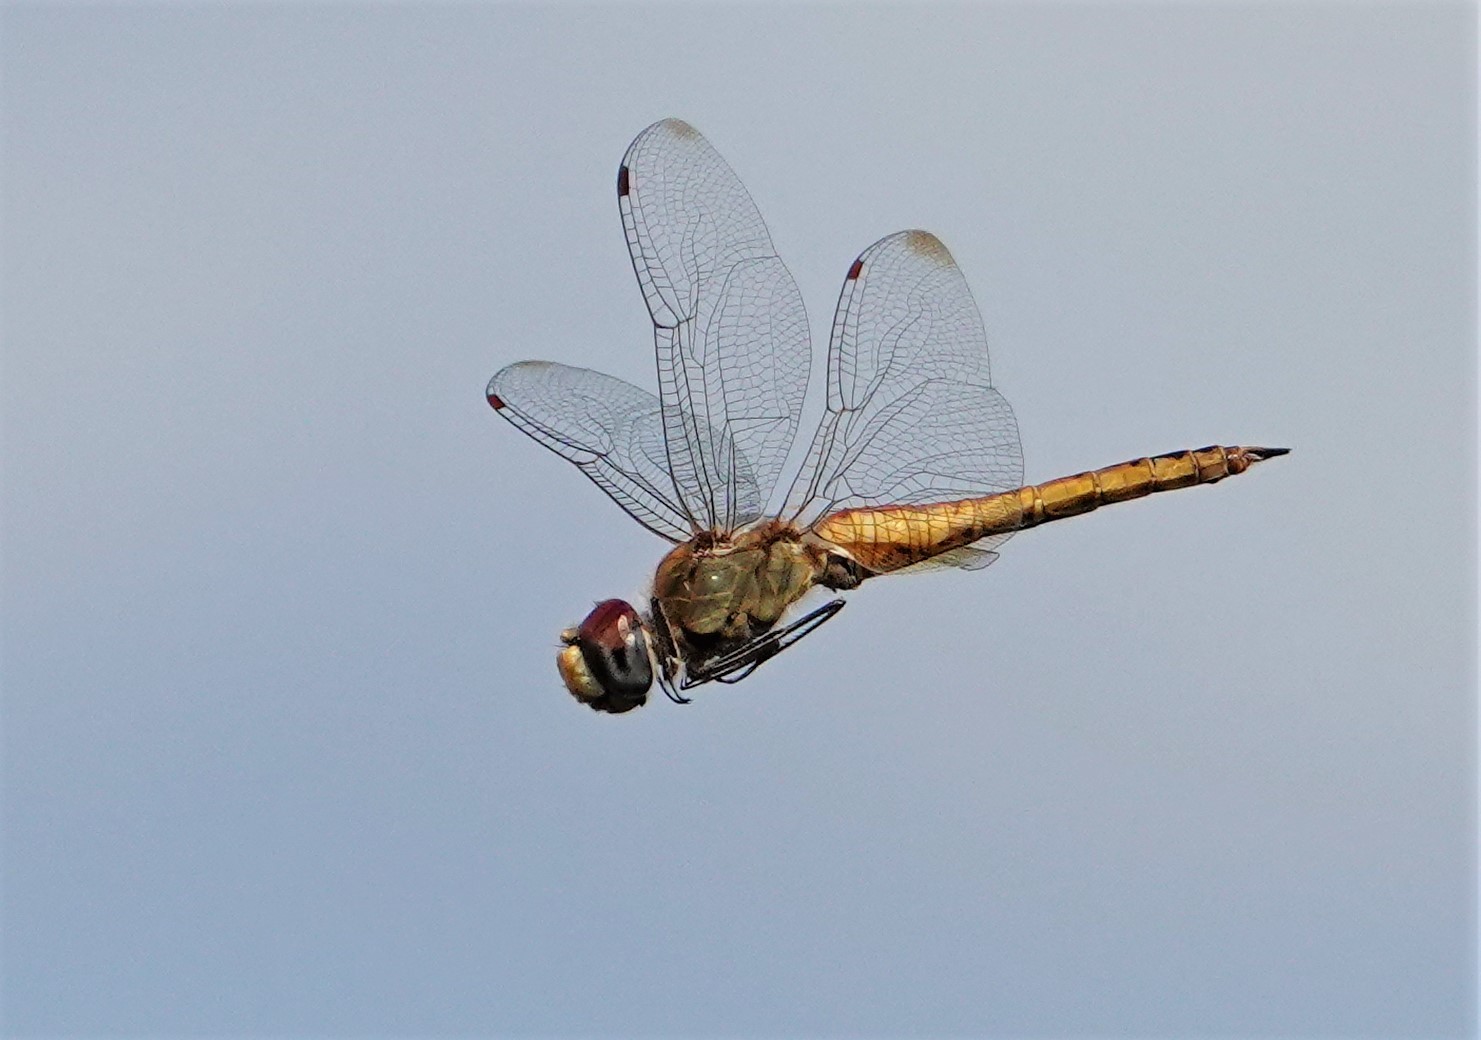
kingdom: Animalia
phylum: Arthropoda
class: Insecta
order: Odonata
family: Libellulidae
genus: Pantala
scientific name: Pantala flavescens
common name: Wandering glider
